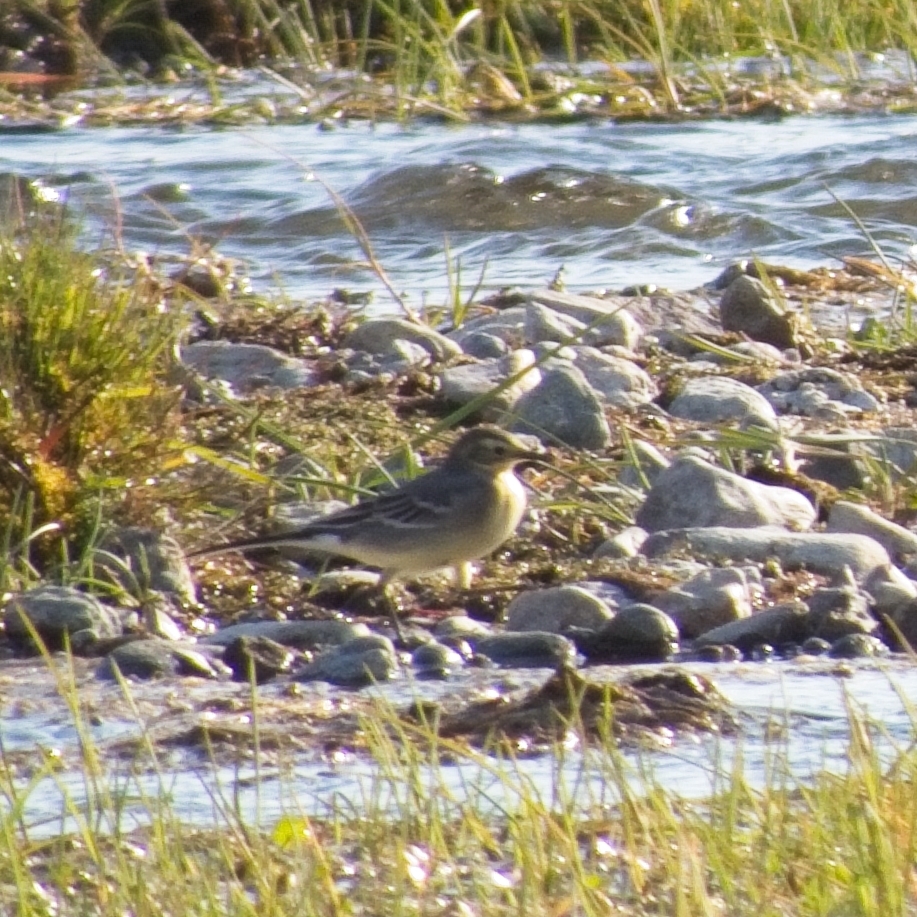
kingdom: Animalia
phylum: Chordata
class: Aves
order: Passeriformes
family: Motacillidae
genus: Motacilla
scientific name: Motacilla citreola
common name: Citrine wagtail
